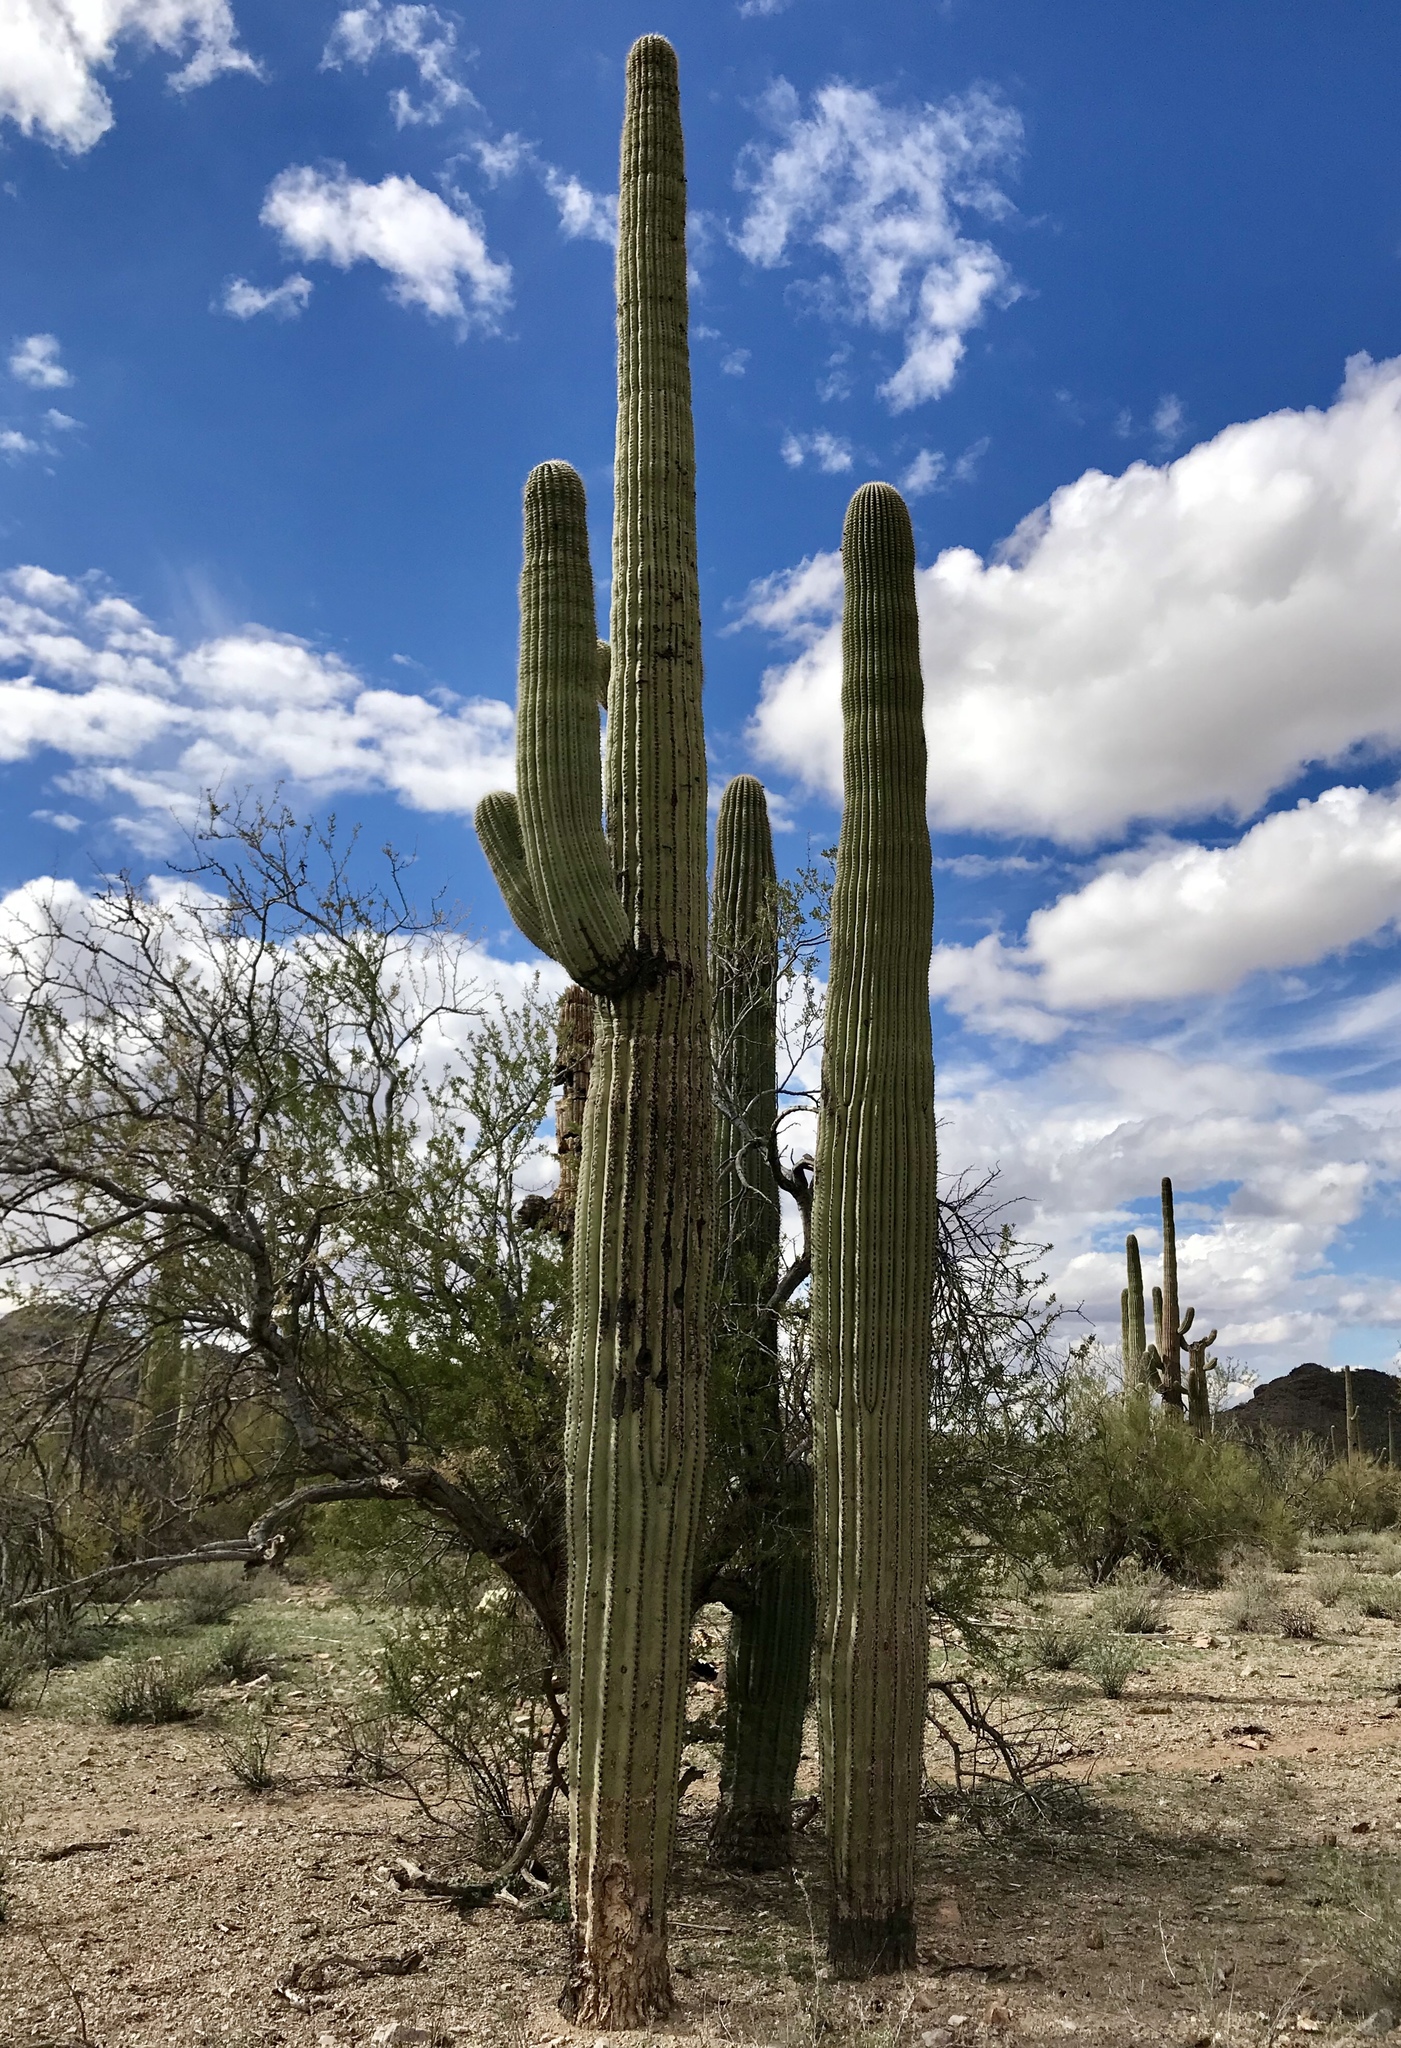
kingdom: Plantae
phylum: Tracheophyta
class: Magnoliopsida
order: Caryophyllales
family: Cactaceae
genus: Carnegiea
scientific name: Carnegiea gigantea
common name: Saguaro
